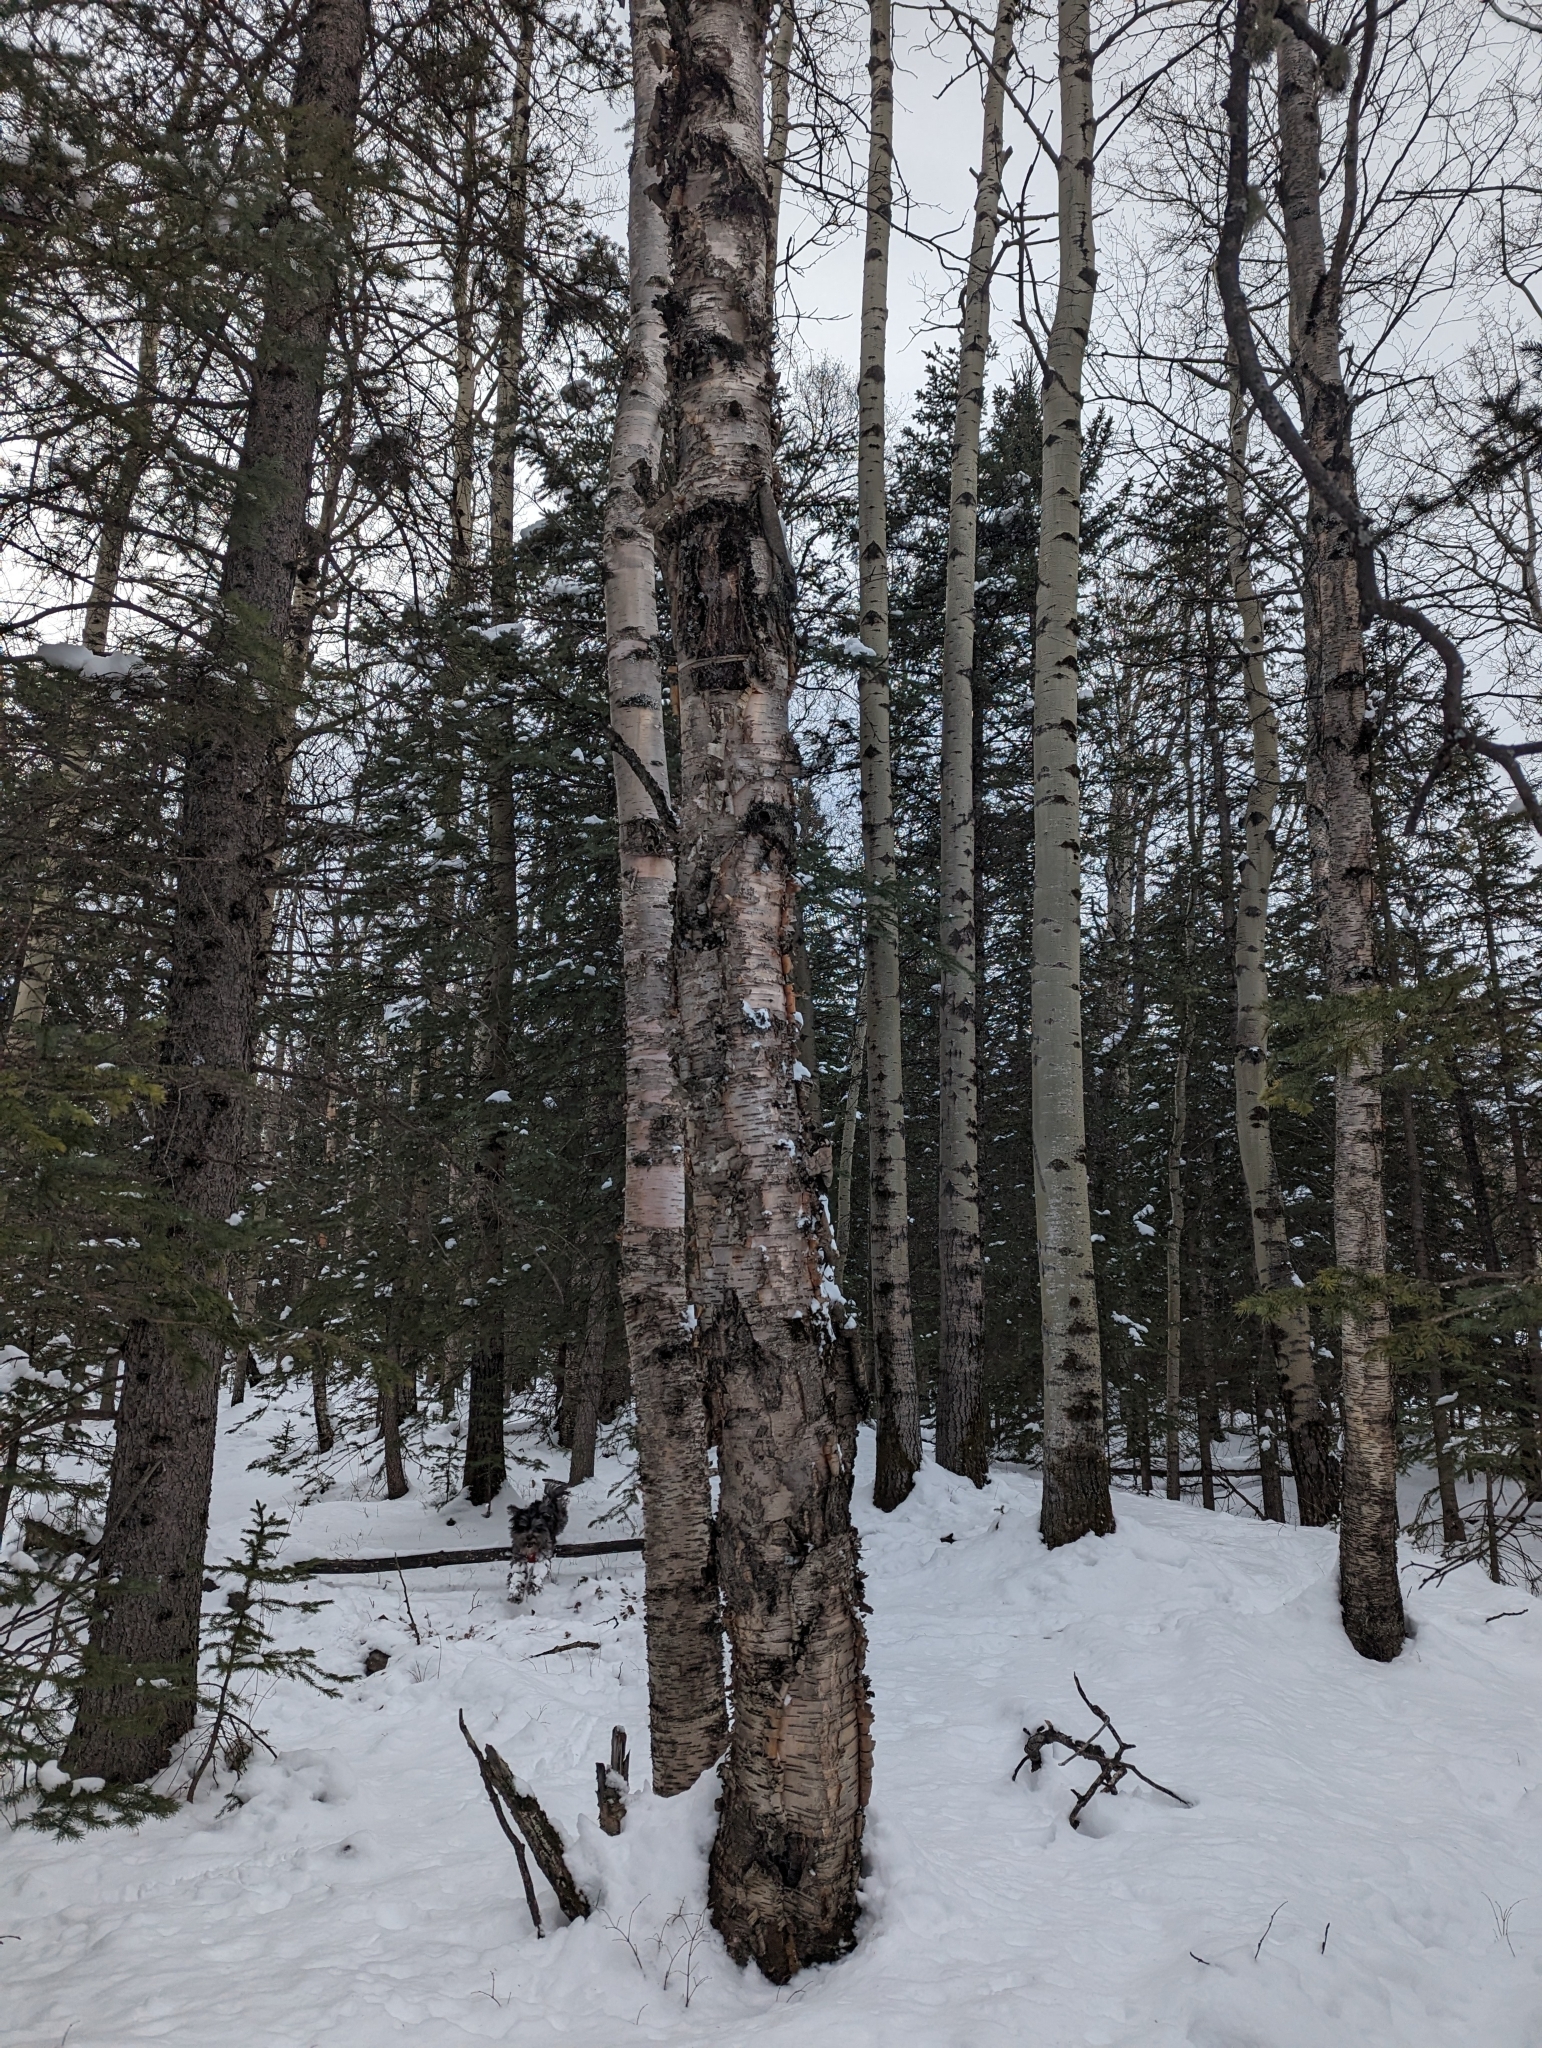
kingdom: Plantae
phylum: Tracheophyta
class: Magnoliopsida
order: Fagales
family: Betulaceae
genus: Betula
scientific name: Betula papyrifera
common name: Paper birch
